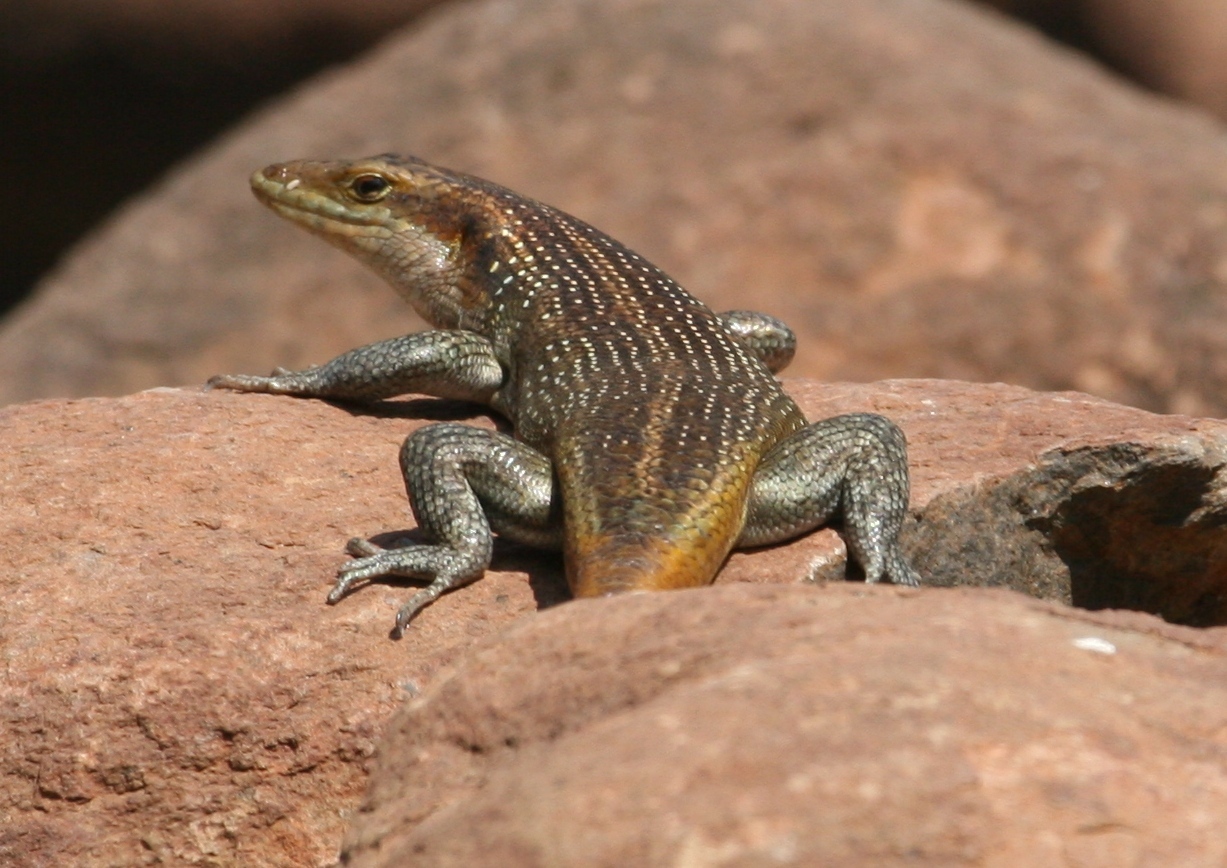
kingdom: Animalia
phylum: Chordata
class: Squamata
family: Scincidae
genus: Trachylepis
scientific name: Trachylepis margaritifera
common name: Rainbow skink
